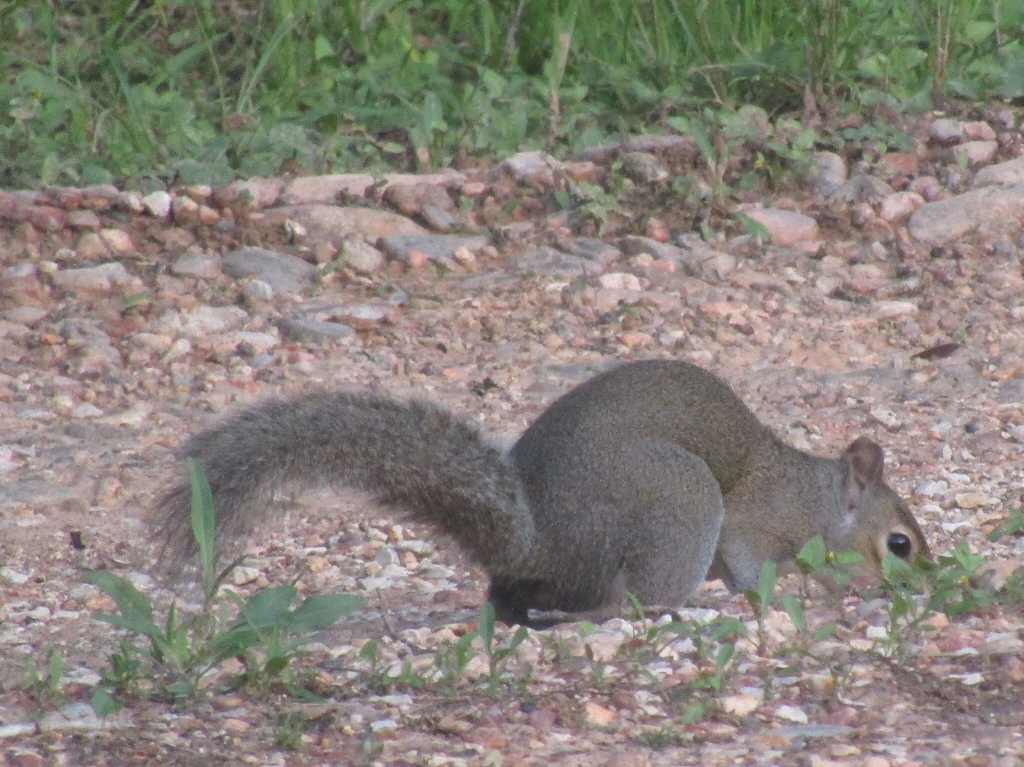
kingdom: Animalia
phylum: Chordata
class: Mammalia
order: Rodentia
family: Sciuridae
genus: Sciurus
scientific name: Sciurus carolinensis
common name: Eastern gray squirrel
